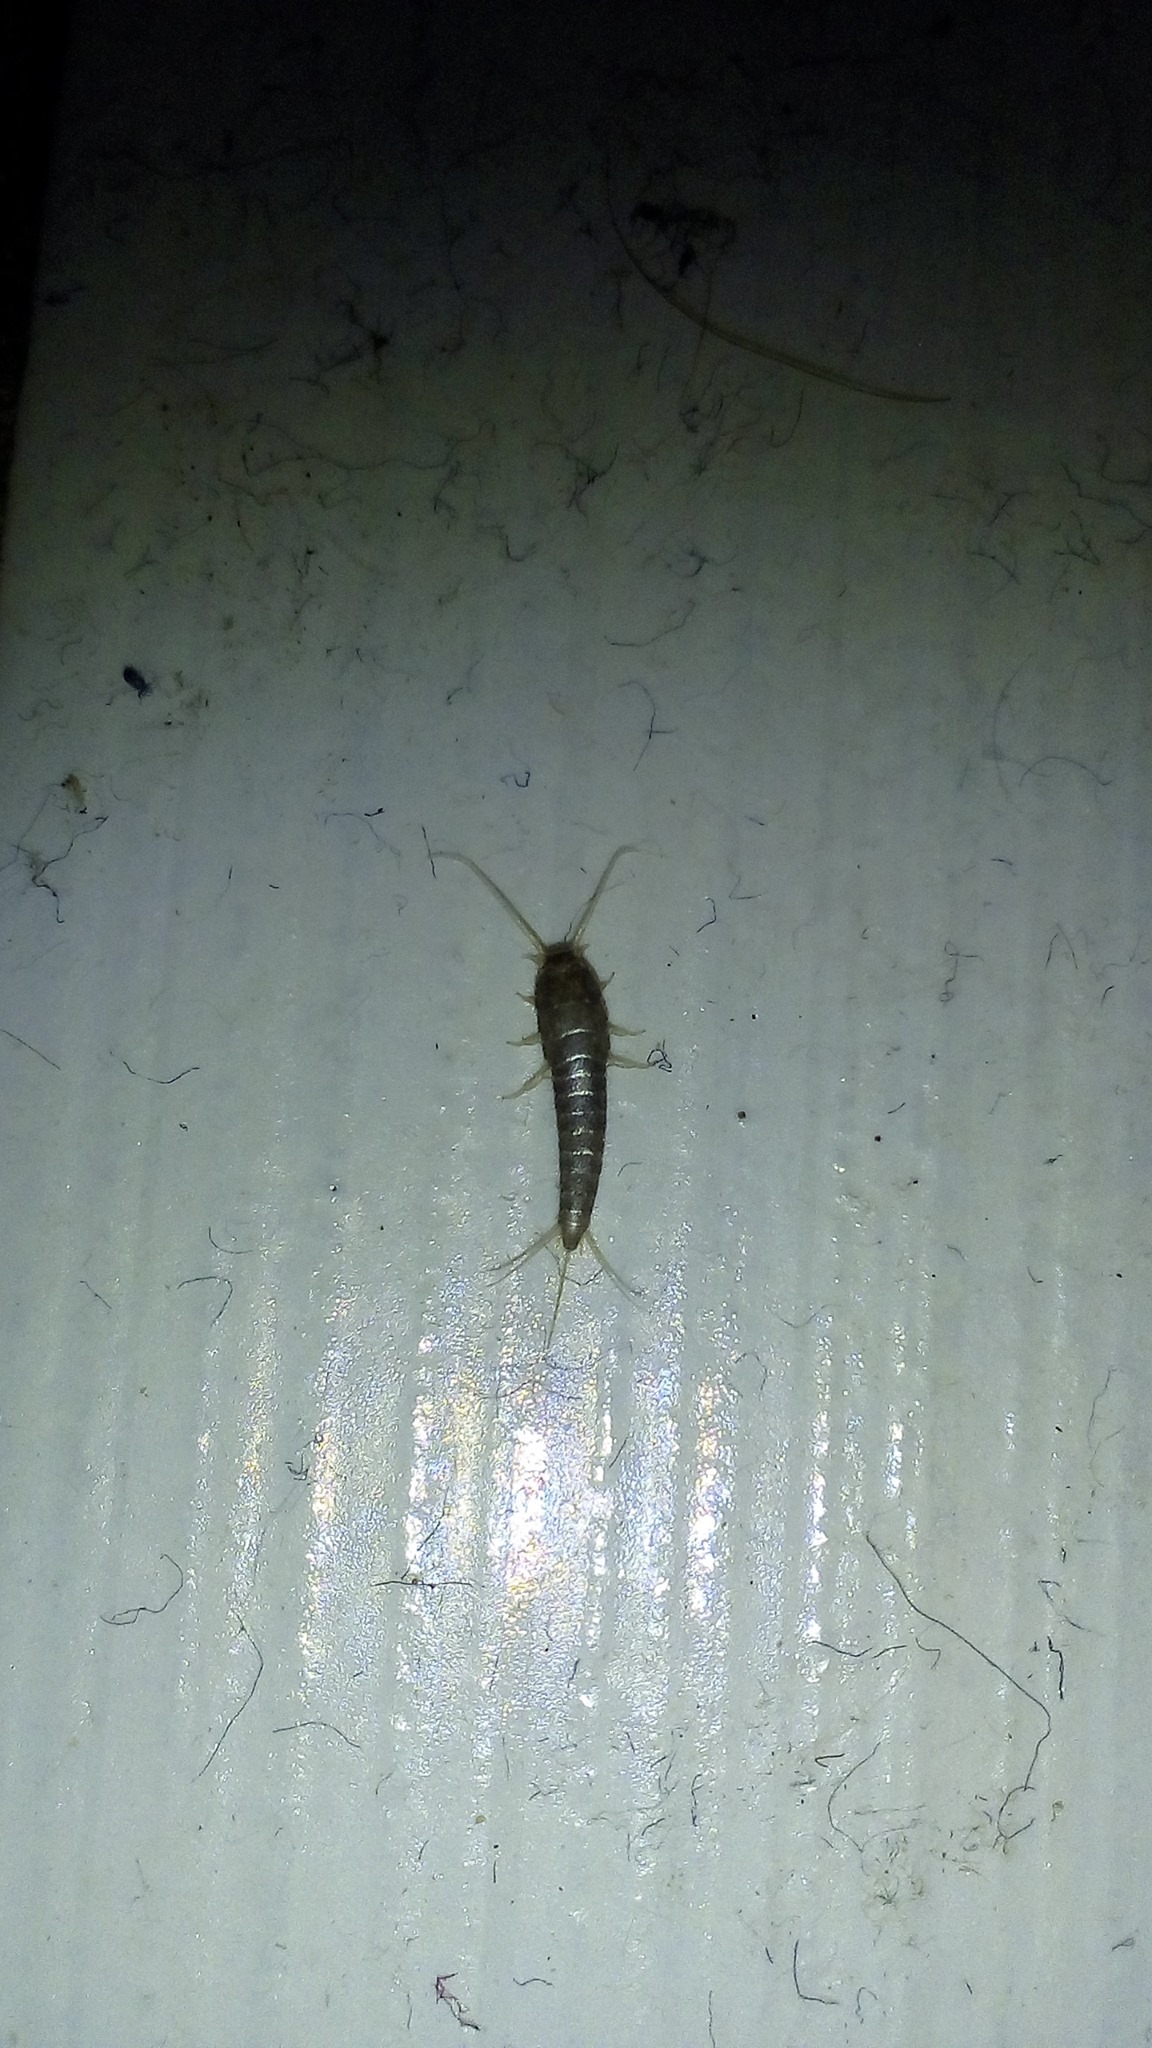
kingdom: Animalia
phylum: Arthropoda
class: Insecta
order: Zygentoma
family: Lepismatidae
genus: Lepisma
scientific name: Lepisma saccharinum
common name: Silverfish
